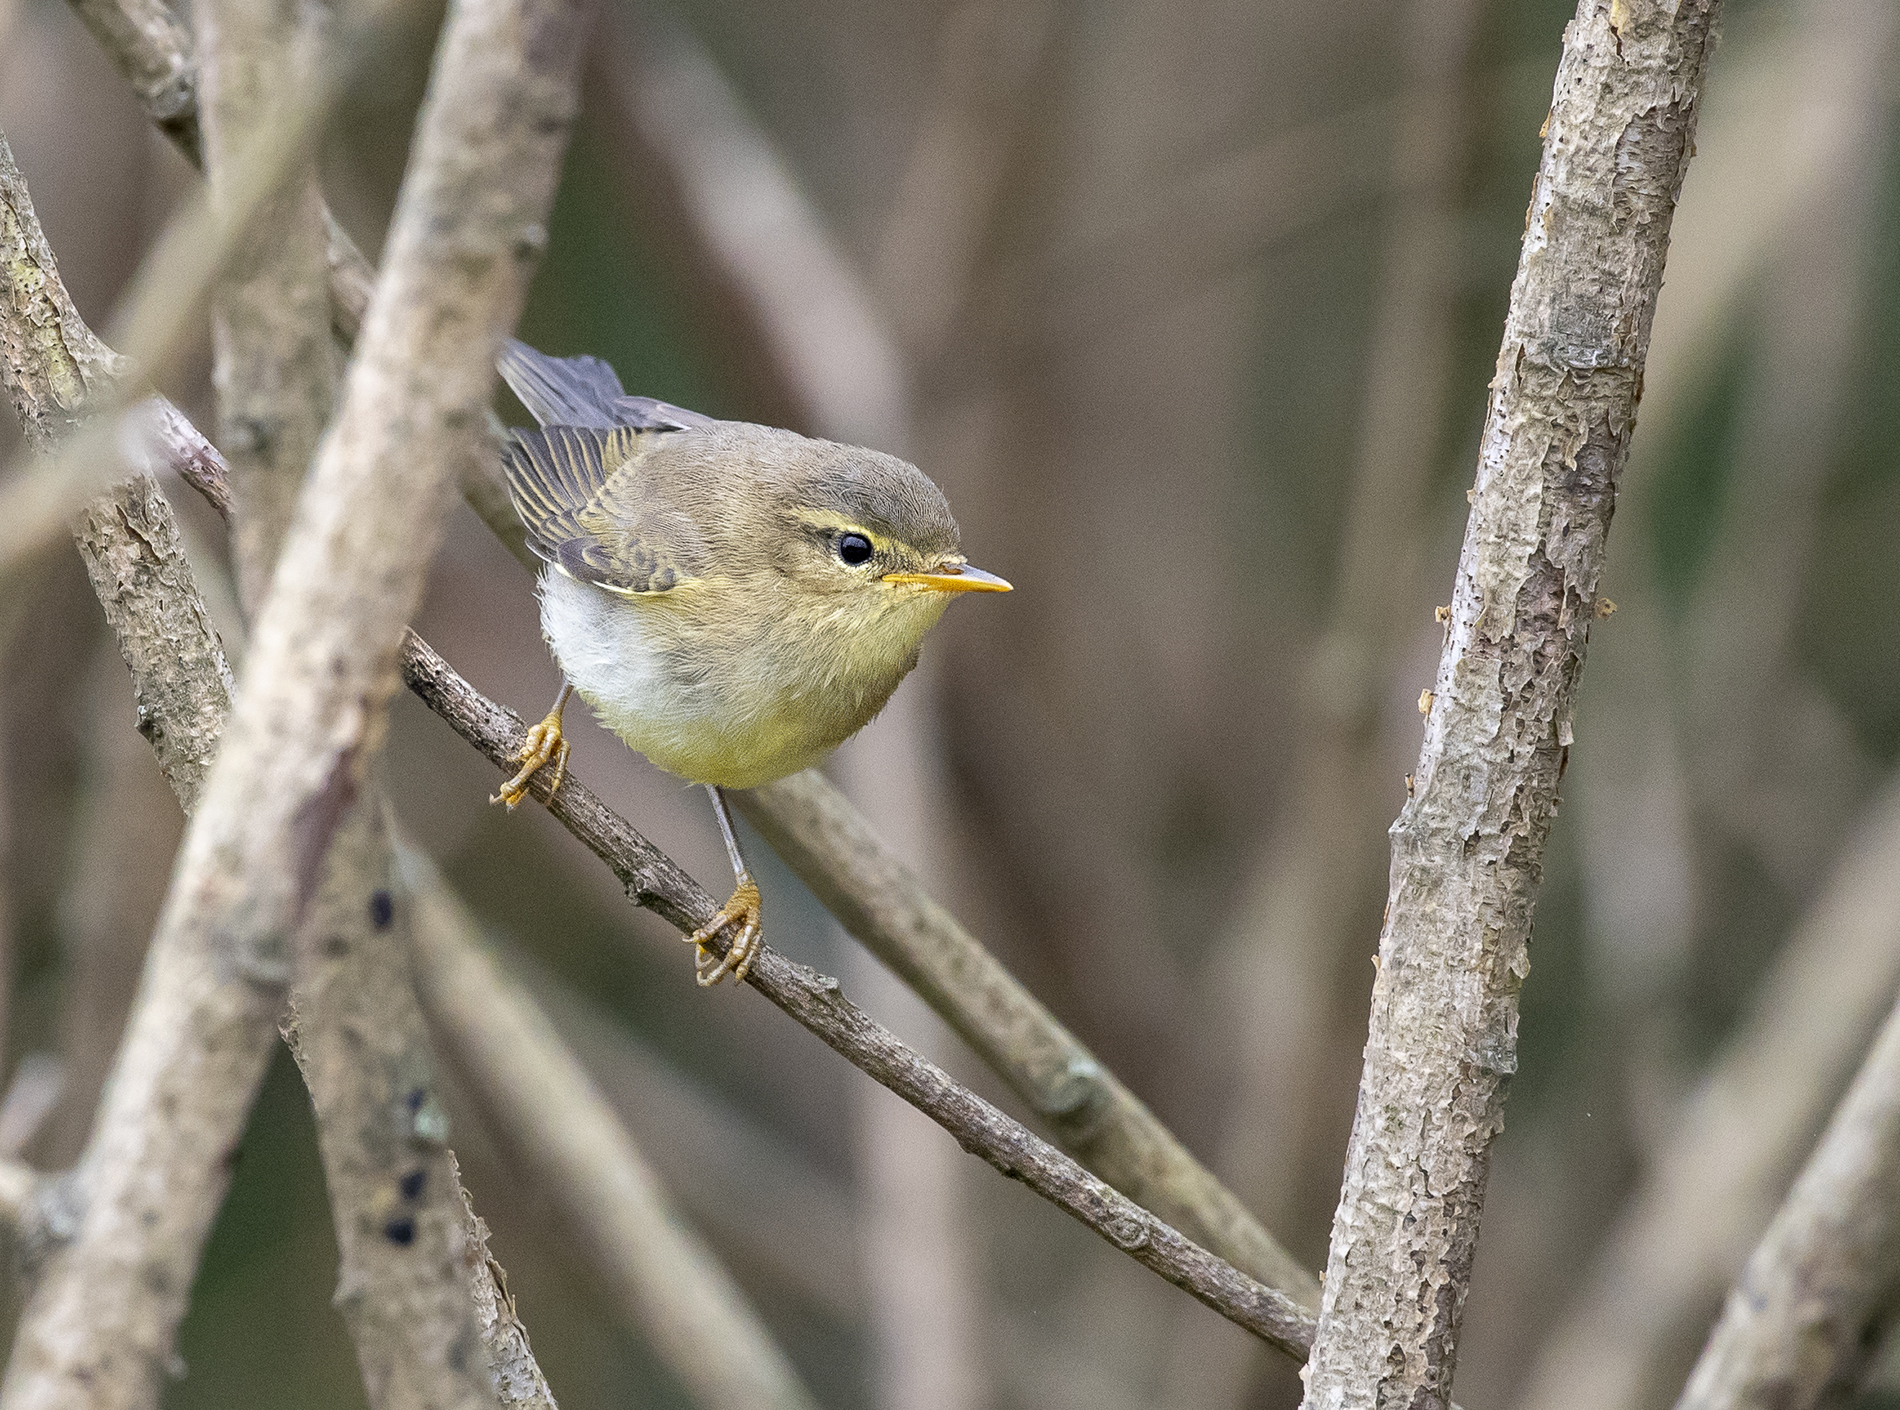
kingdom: Animalia
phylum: Chordata
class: Aves
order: Passeriformes
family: Phylloscopidae
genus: Phylloscopus
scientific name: Phylloscopus trochilus
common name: Willow warbler
